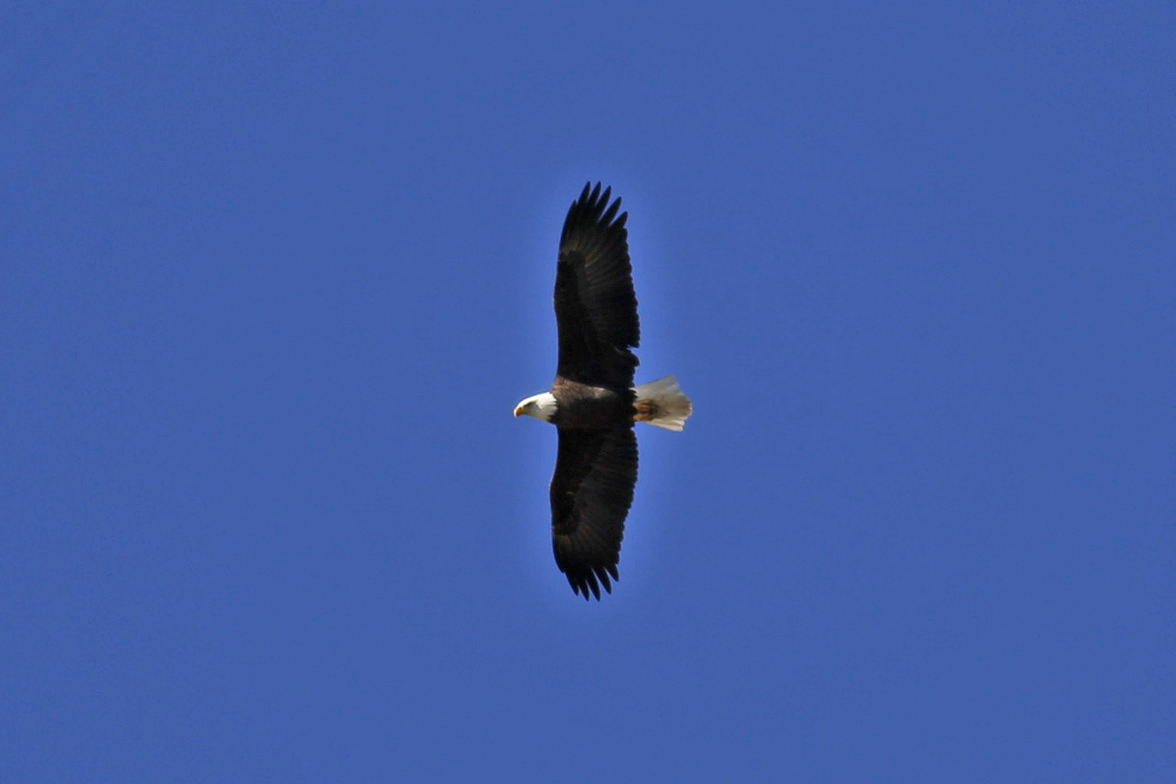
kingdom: Animalia
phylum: Chordata
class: Aves
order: Accipitriformes
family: Accipitridae
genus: Haliaeetus
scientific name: Haliaeetus leucocephalus
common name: Bald eagle
